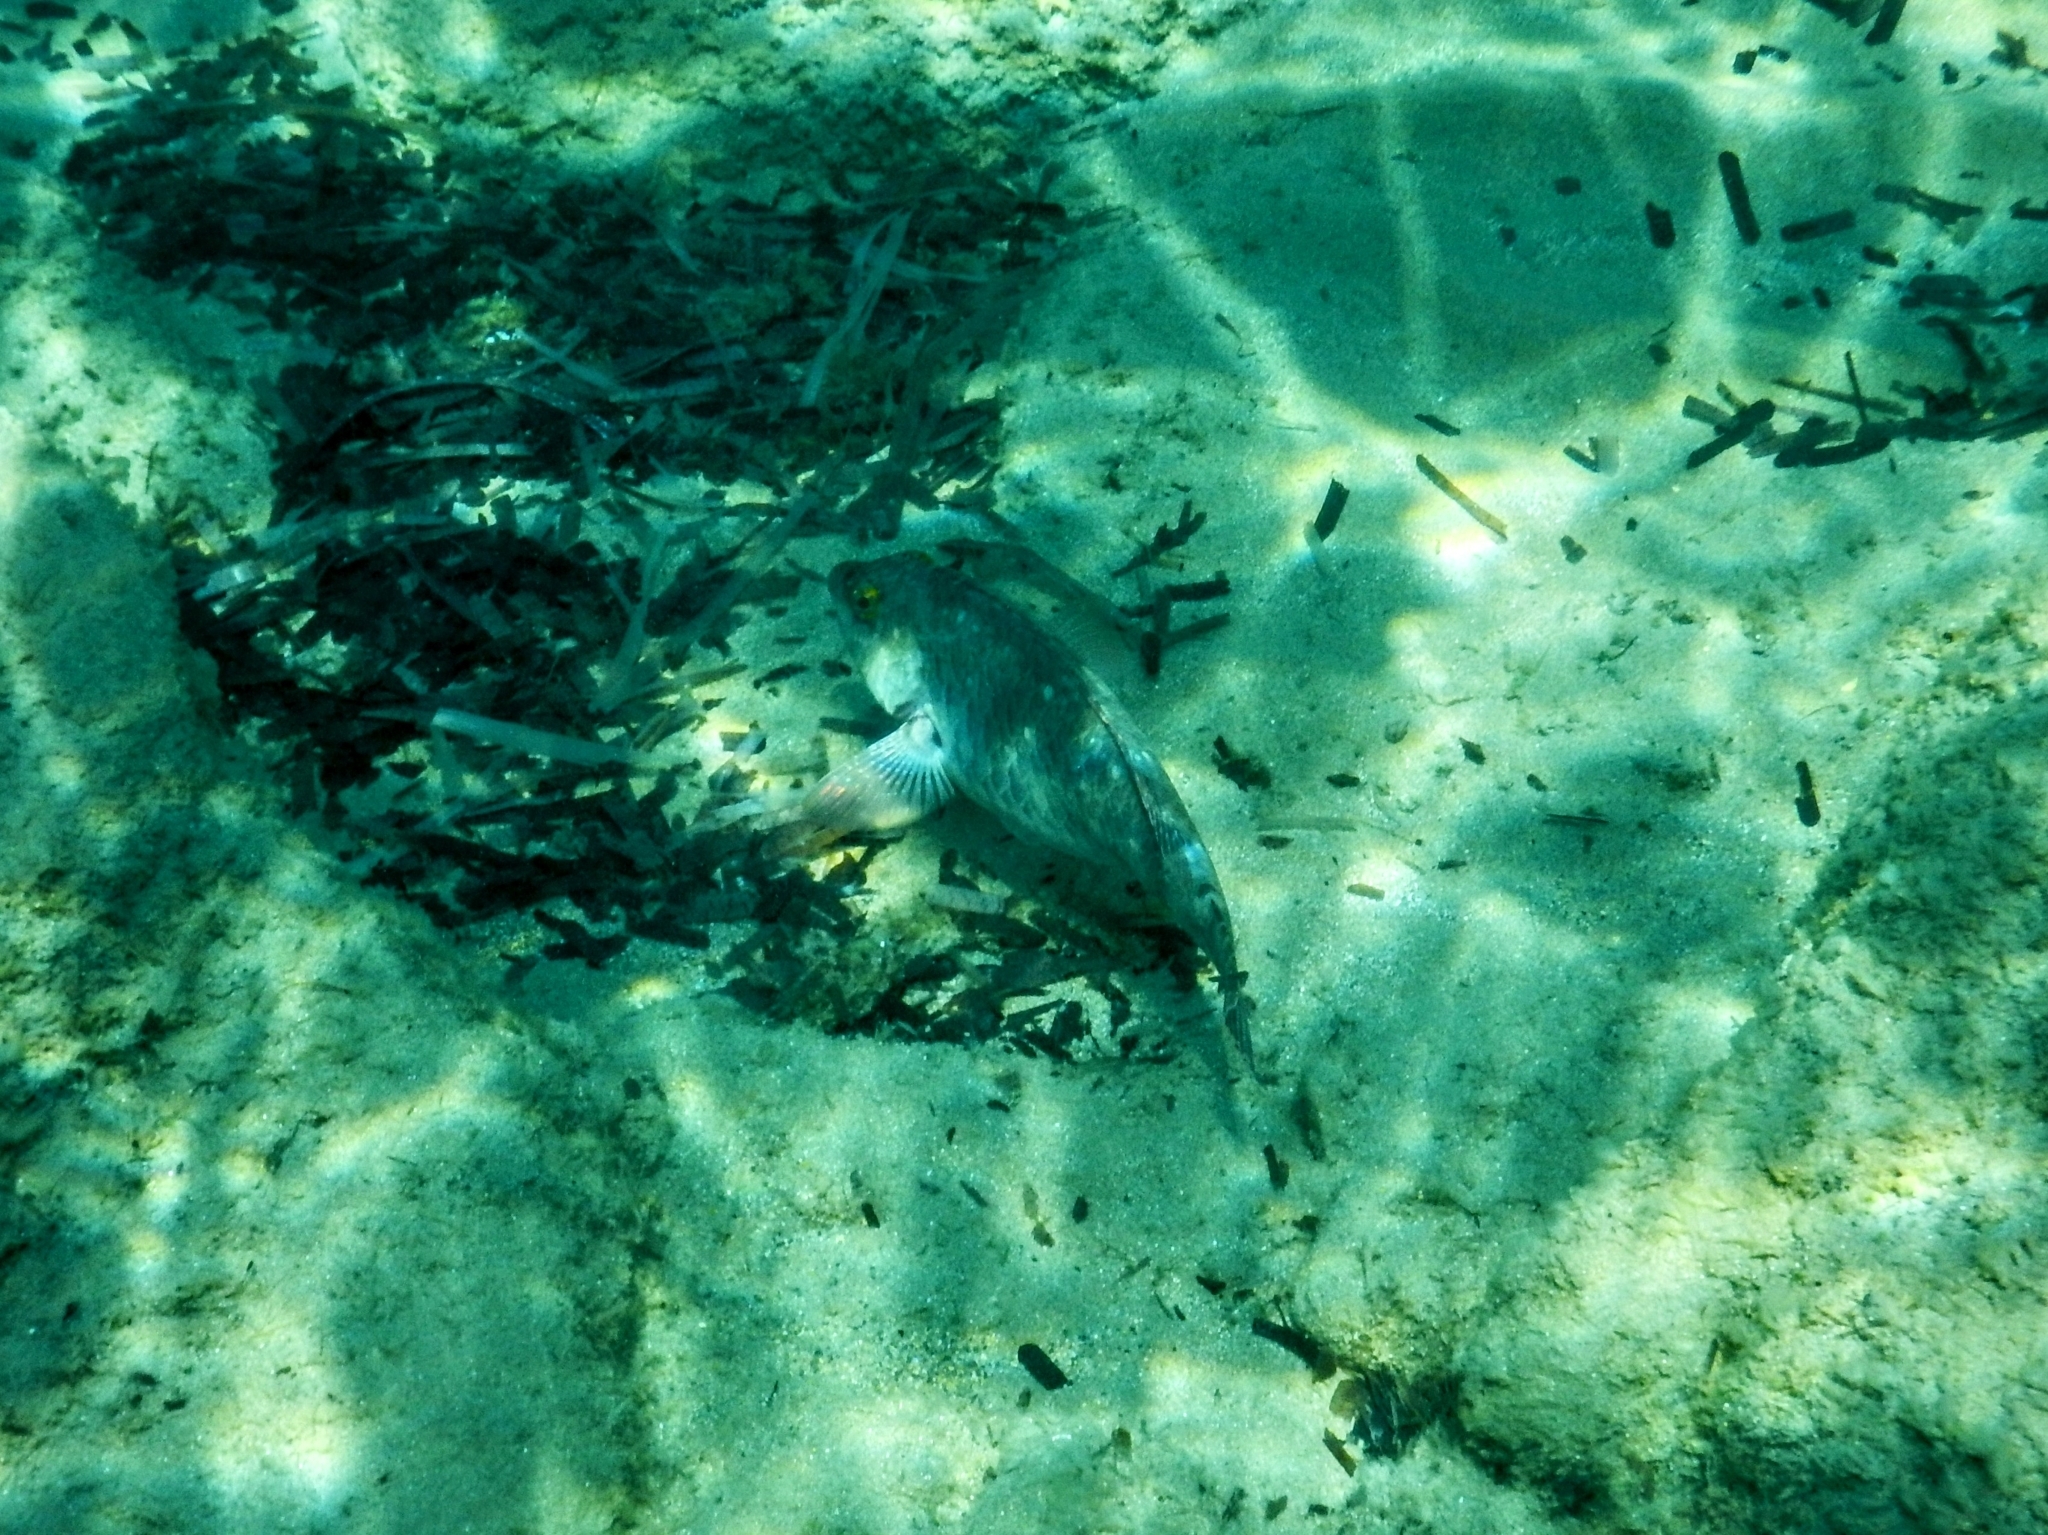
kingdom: Animalia
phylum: Chordata
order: Perciformes
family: Scaridae
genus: Sparisoma
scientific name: Sparisoma cretense
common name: Parrotfish
